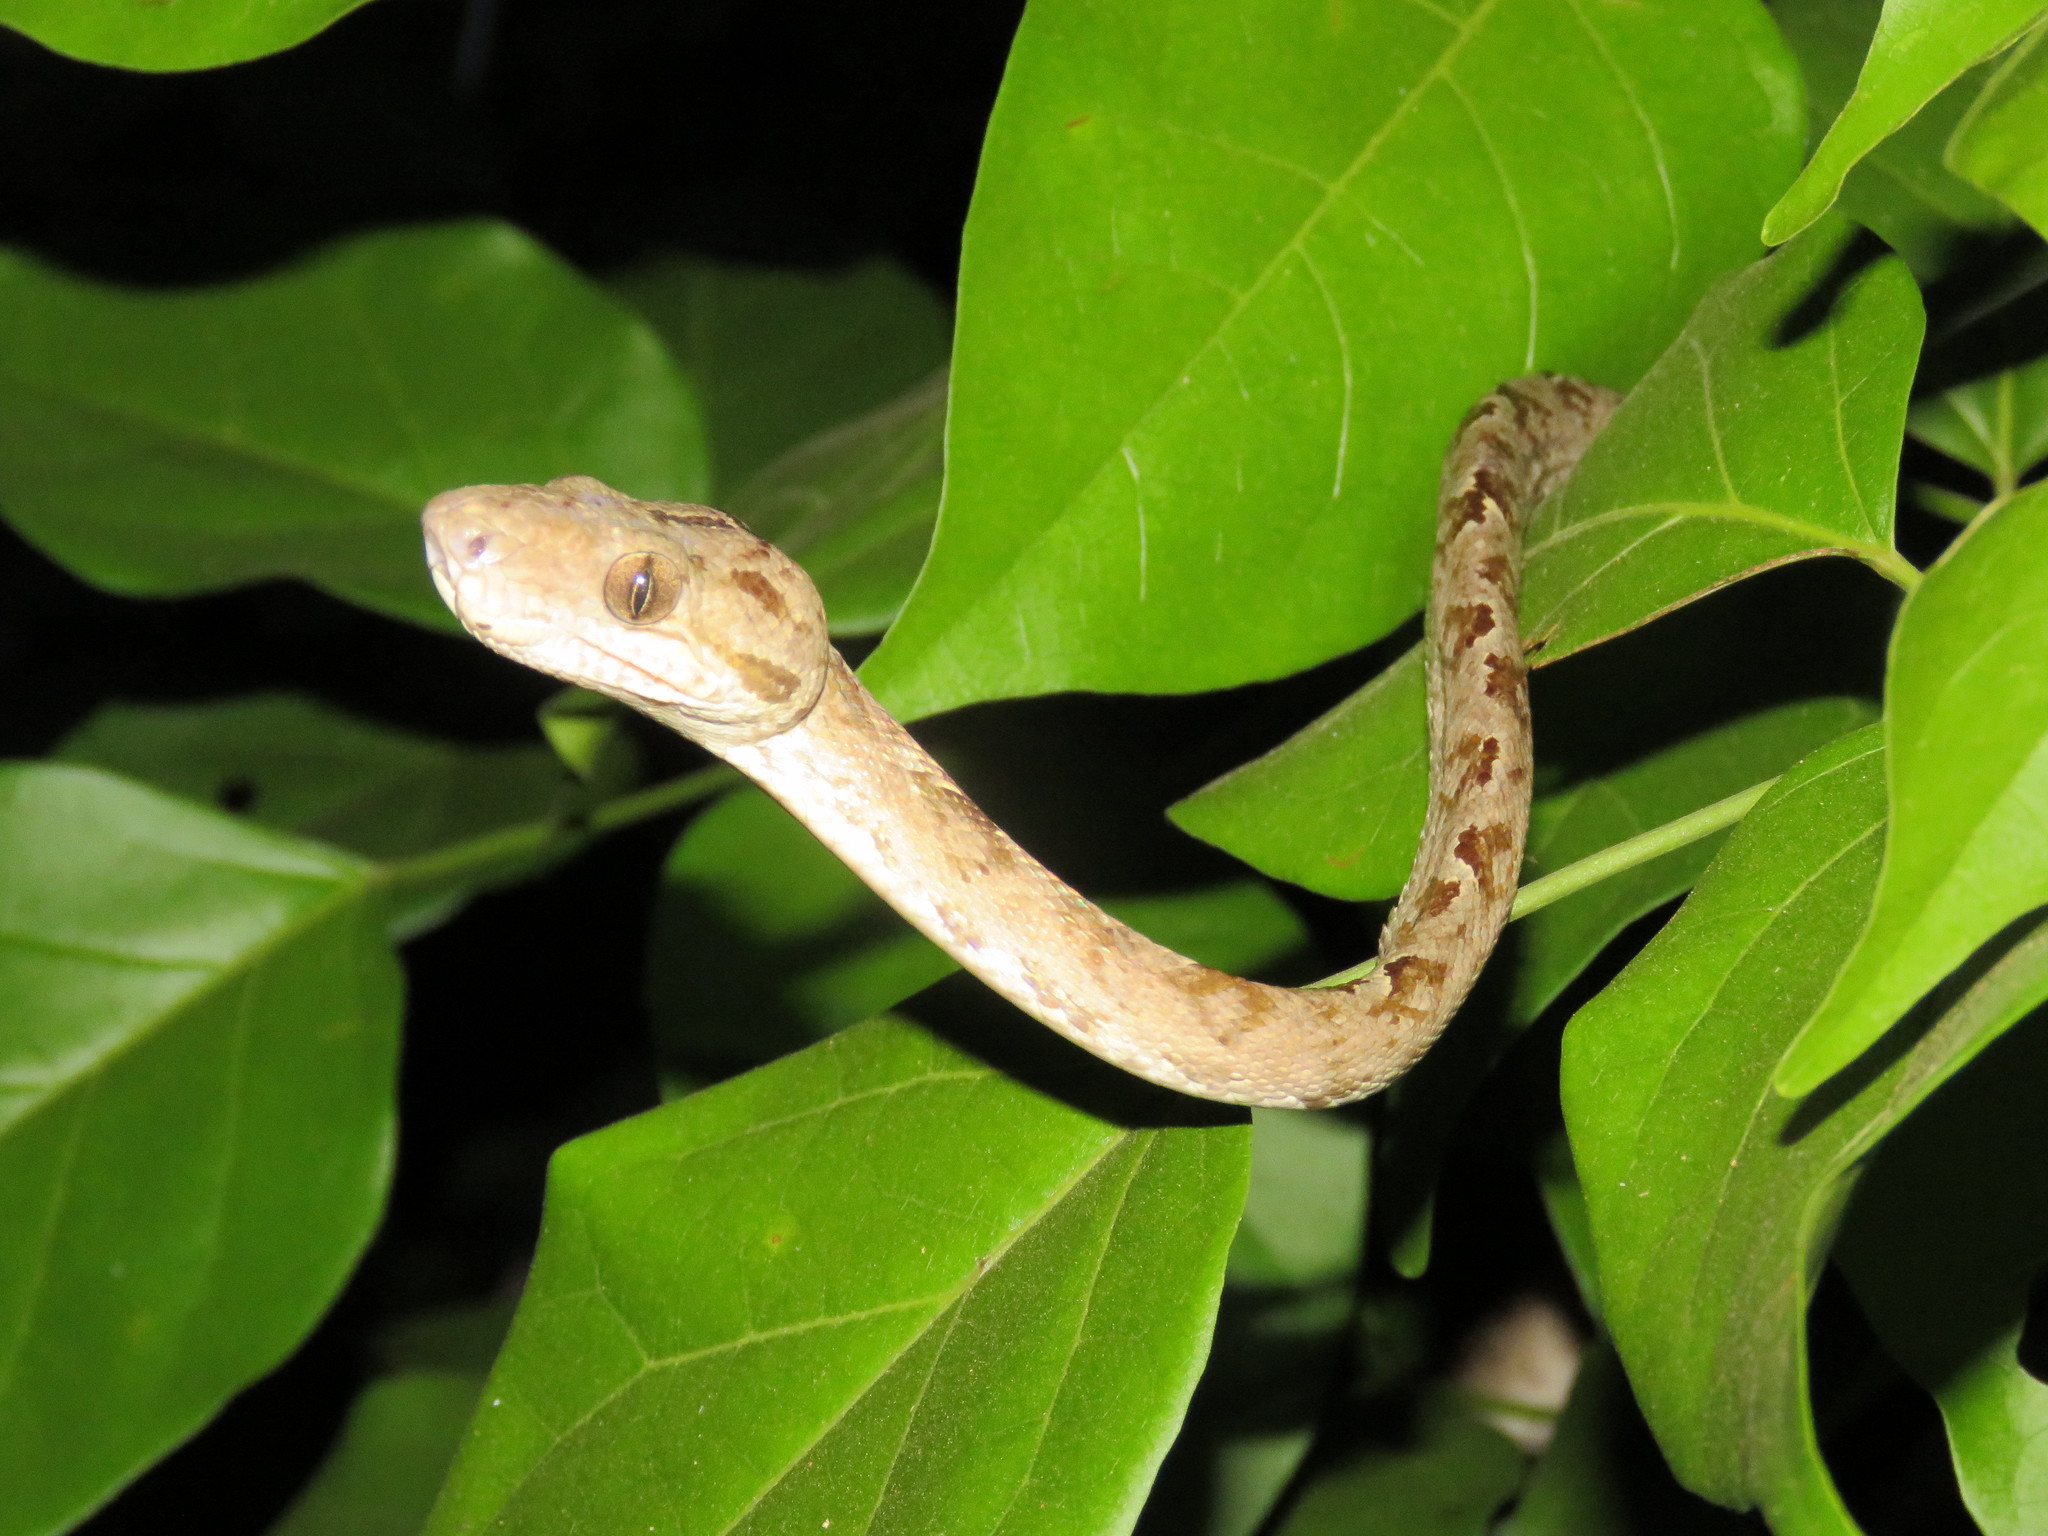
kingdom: Animalia
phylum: Chordata
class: Squamata
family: Boidae
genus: Corallus
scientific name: Corallus hortulana
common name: Garden tree boa
